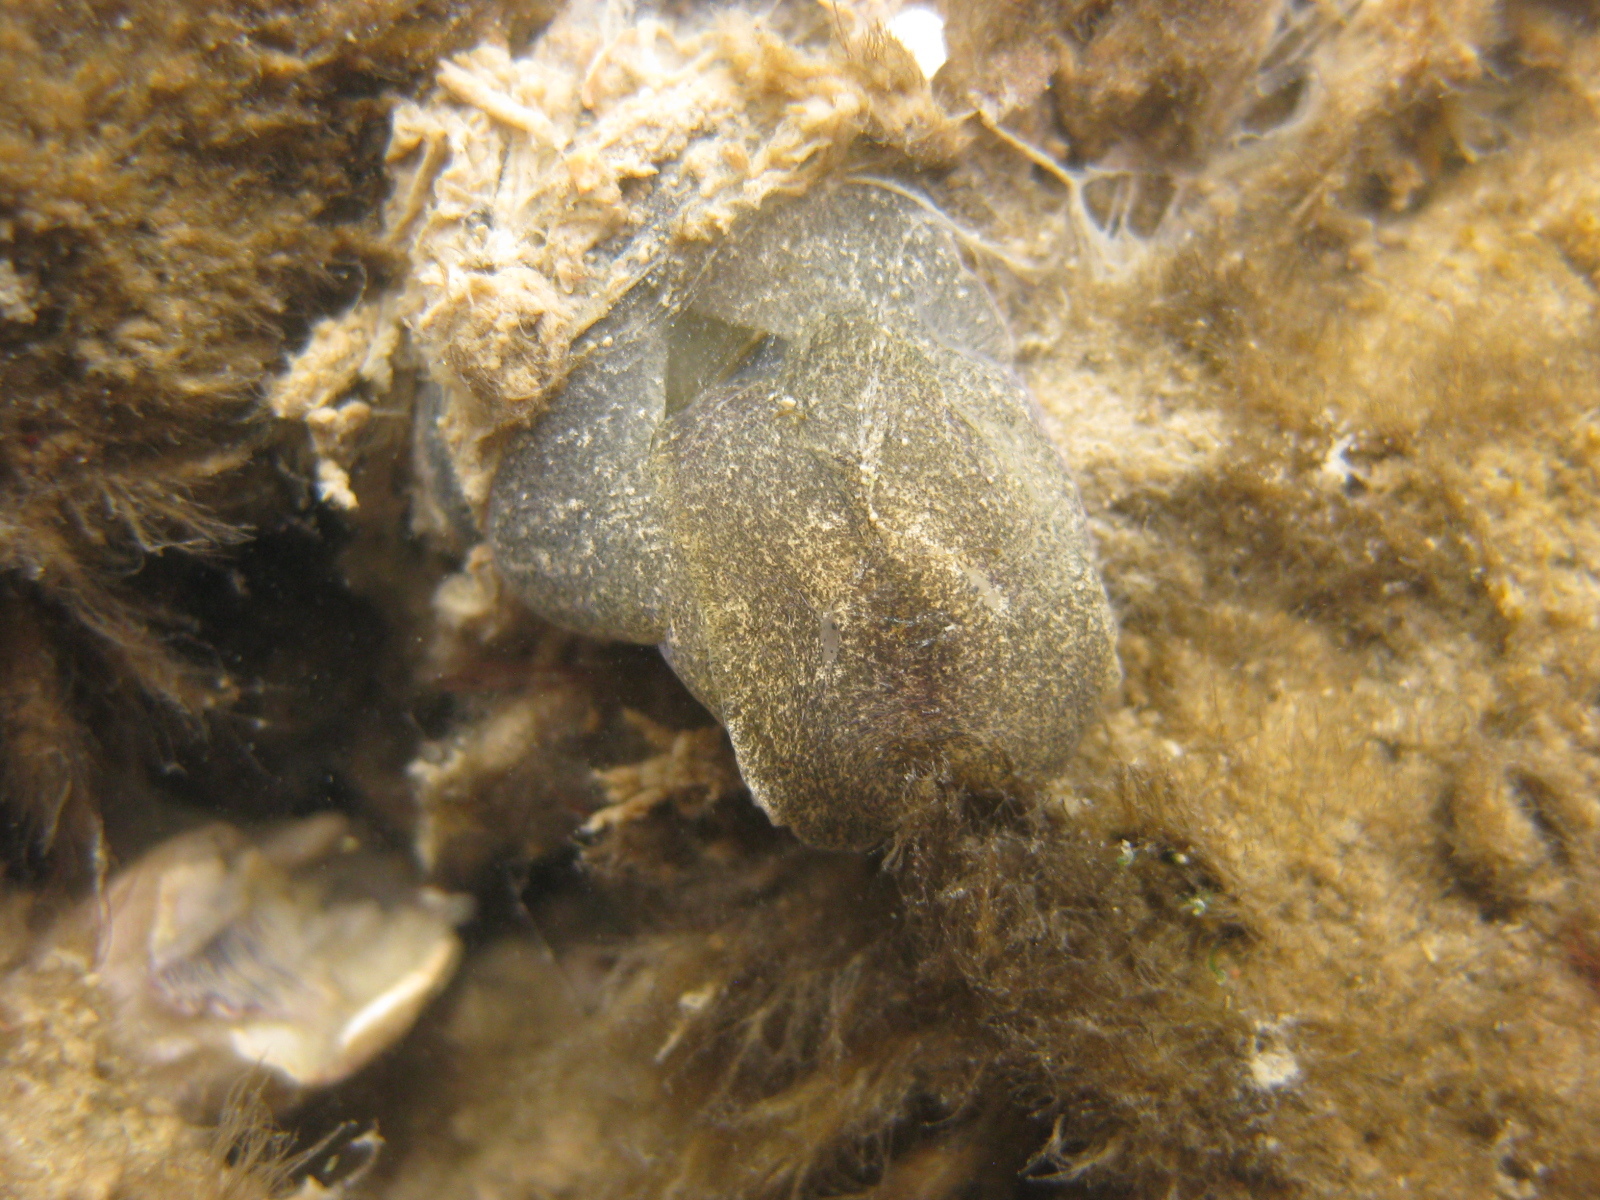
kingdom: Animalia
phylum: Mollusca
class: Gastropoda
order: Cephalaspidea
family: Haminoeidae
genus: Papawera
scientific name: Papawera zelandiae
